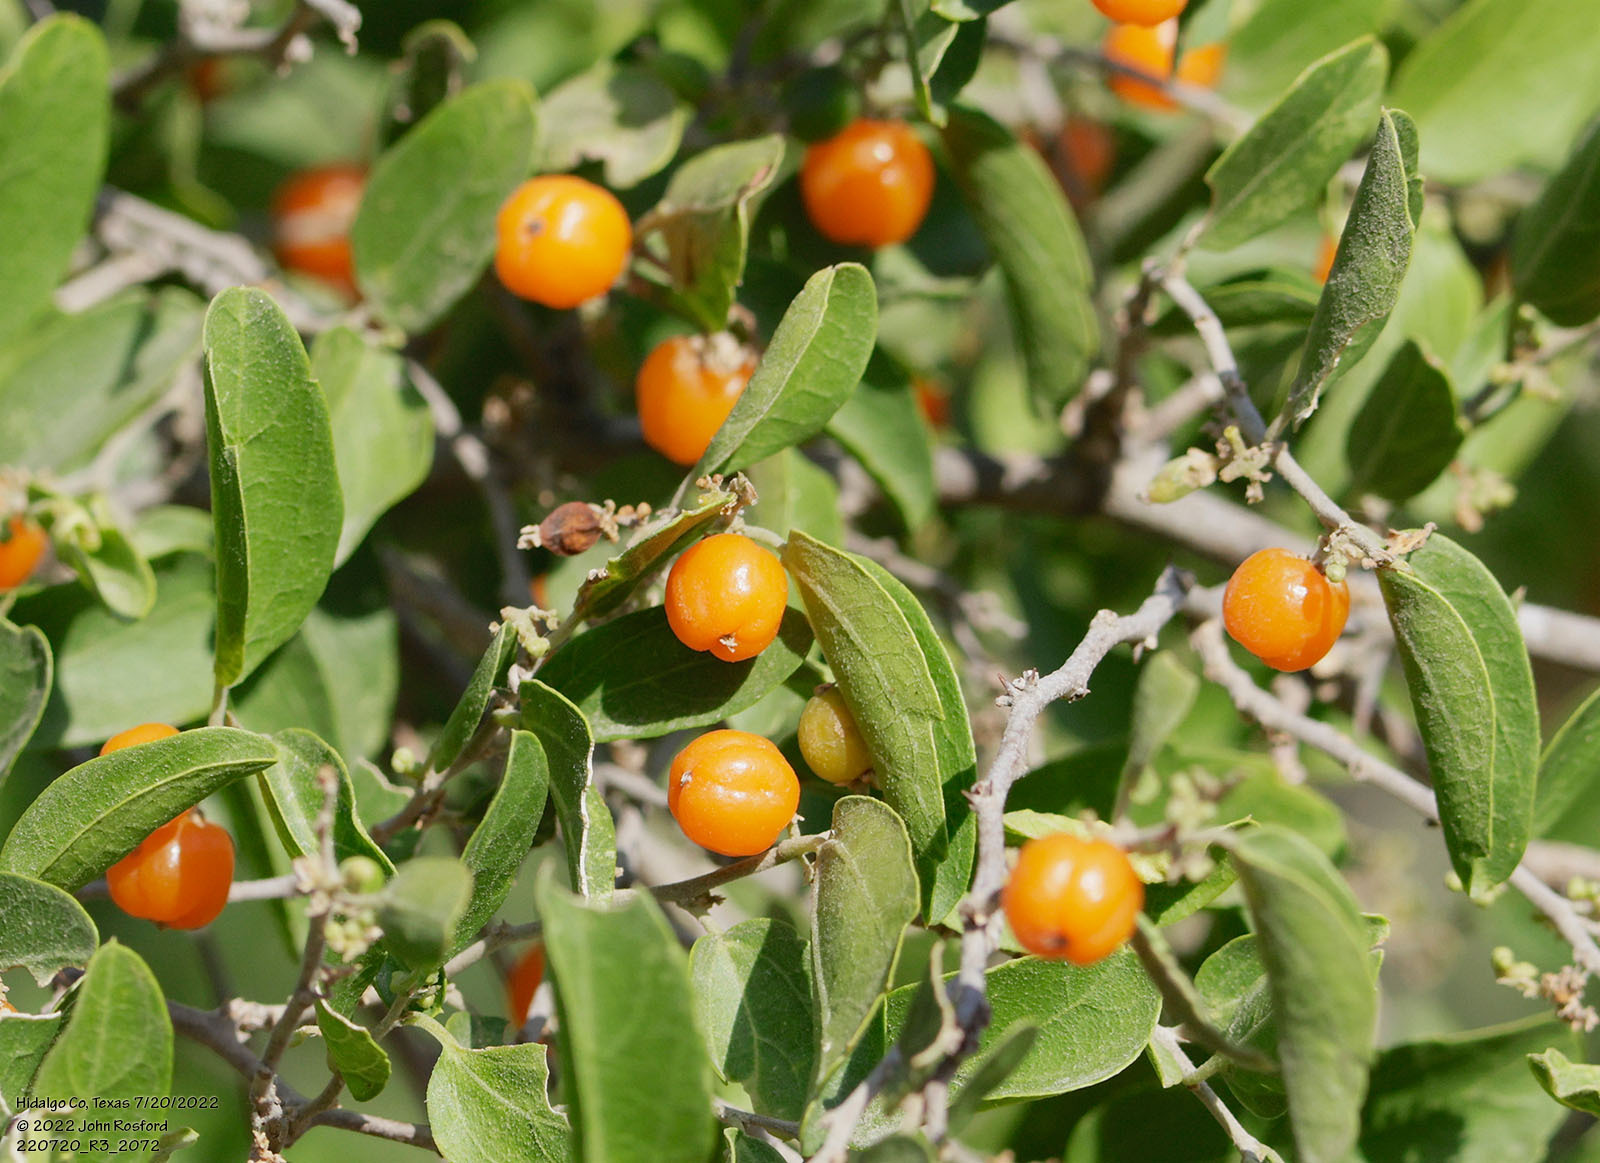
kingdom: Plantae
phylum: Tracheophyta
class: Magnoliopsida
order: Rosales
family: Cannabaceae
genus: Celtis
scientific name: Celtis pallida
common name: Desert hackberry
